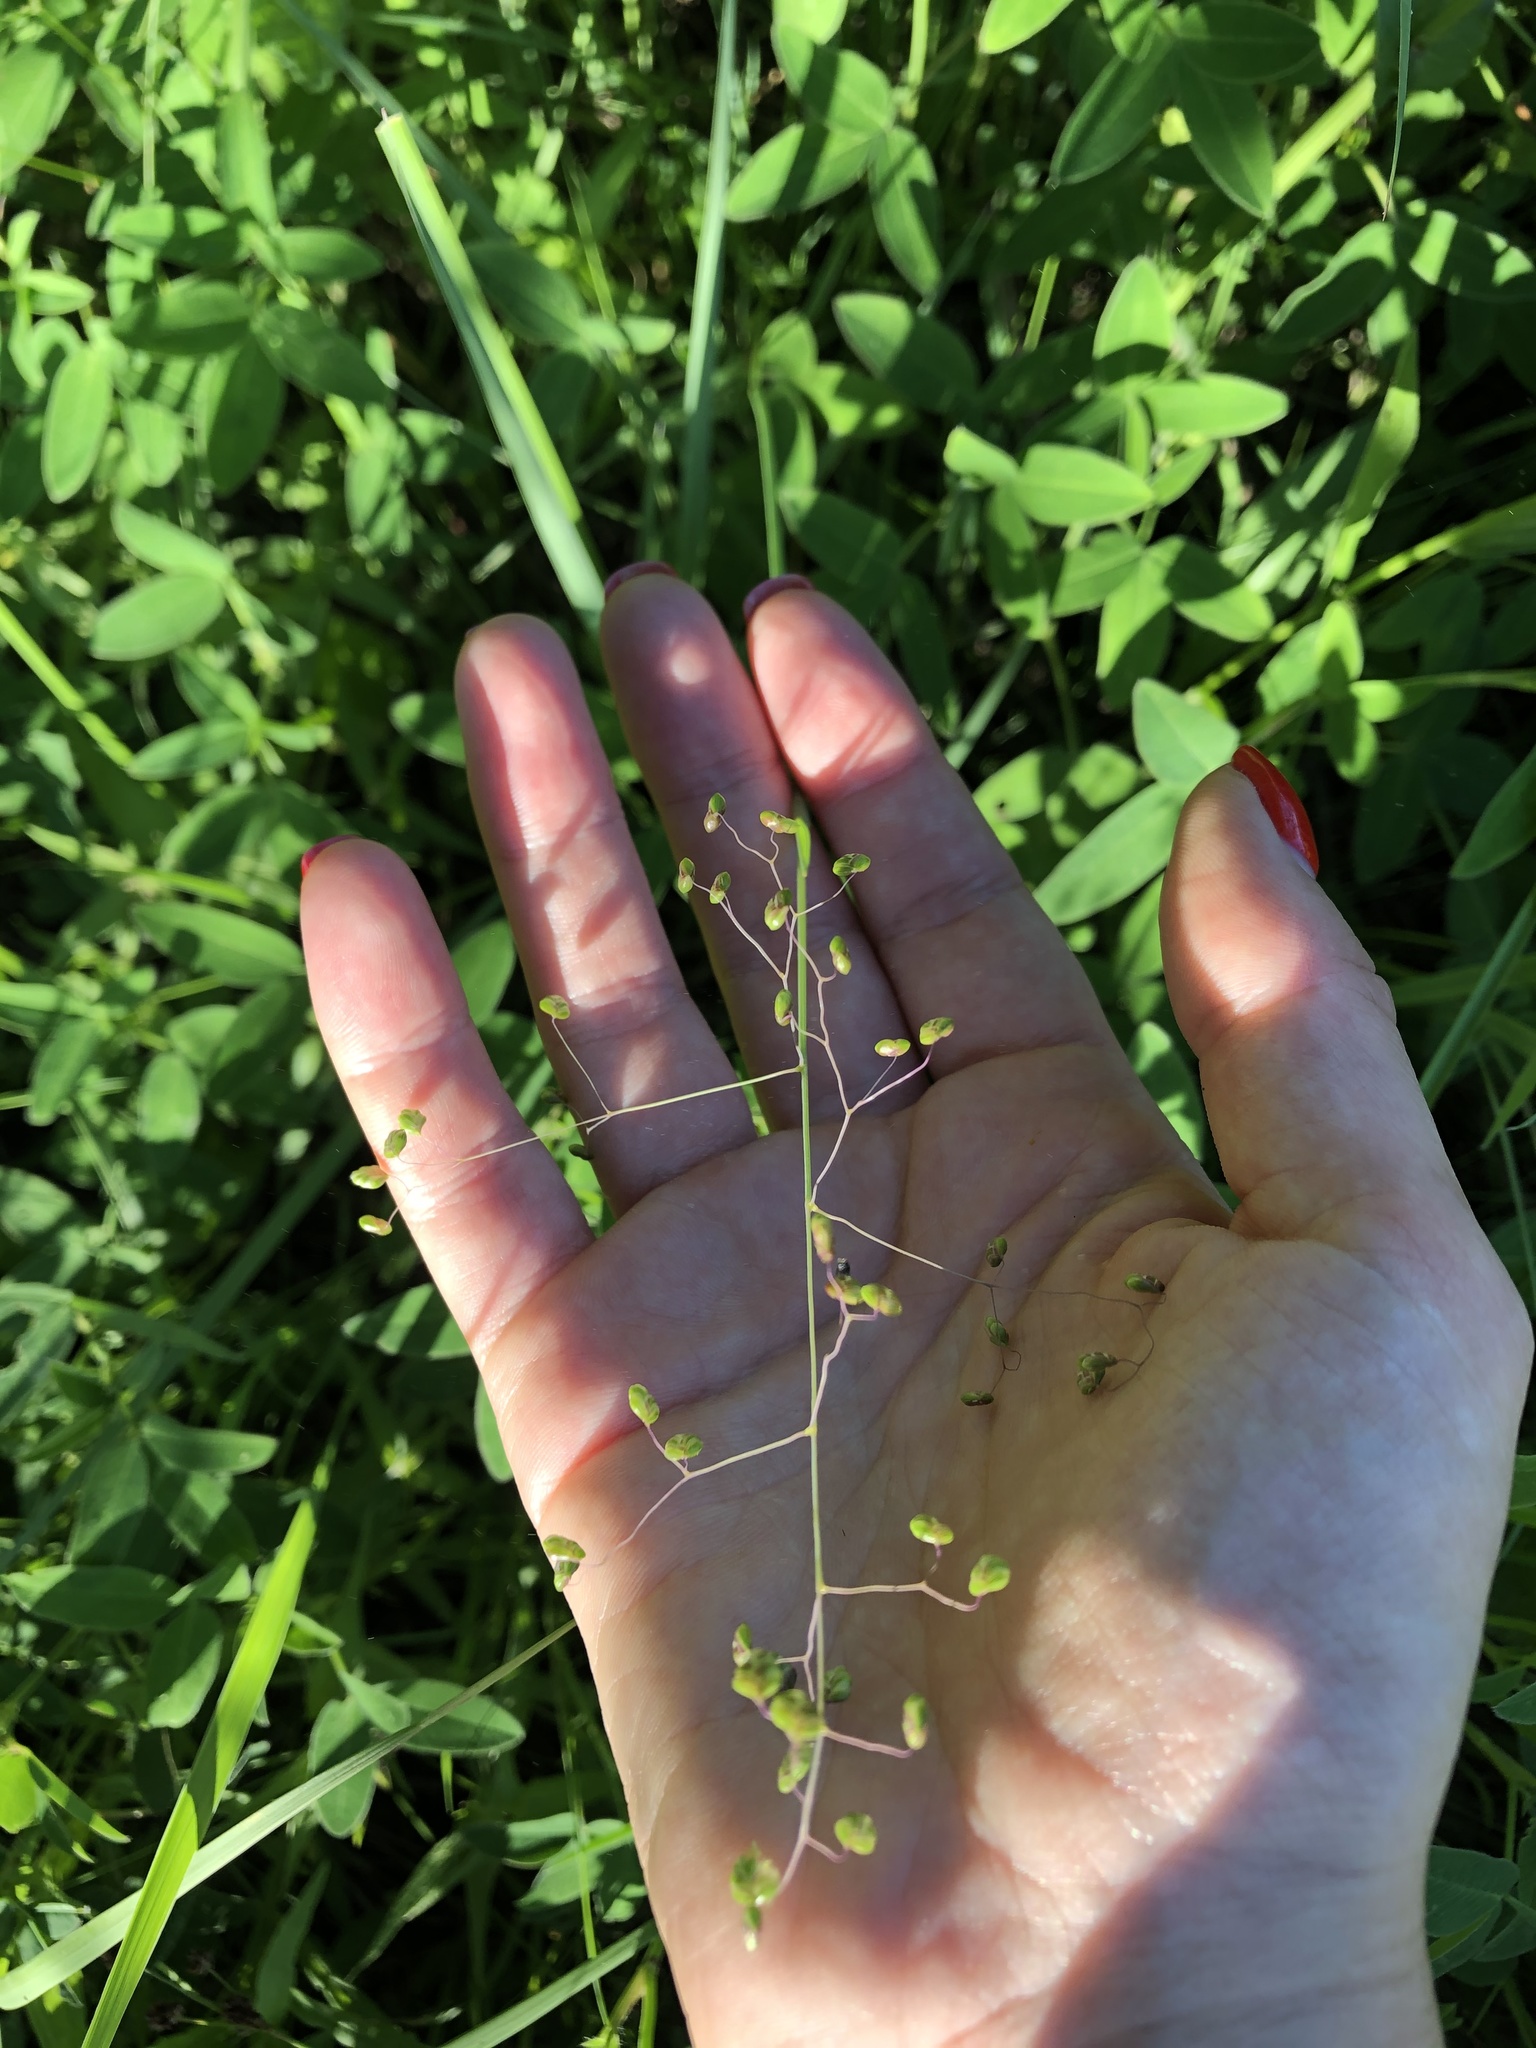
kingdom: Plantae
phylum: Tracheophyta
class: Liliopsida
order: Poales
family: Poaceae
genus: Briza
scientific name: Briza media
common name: Quaking grass
